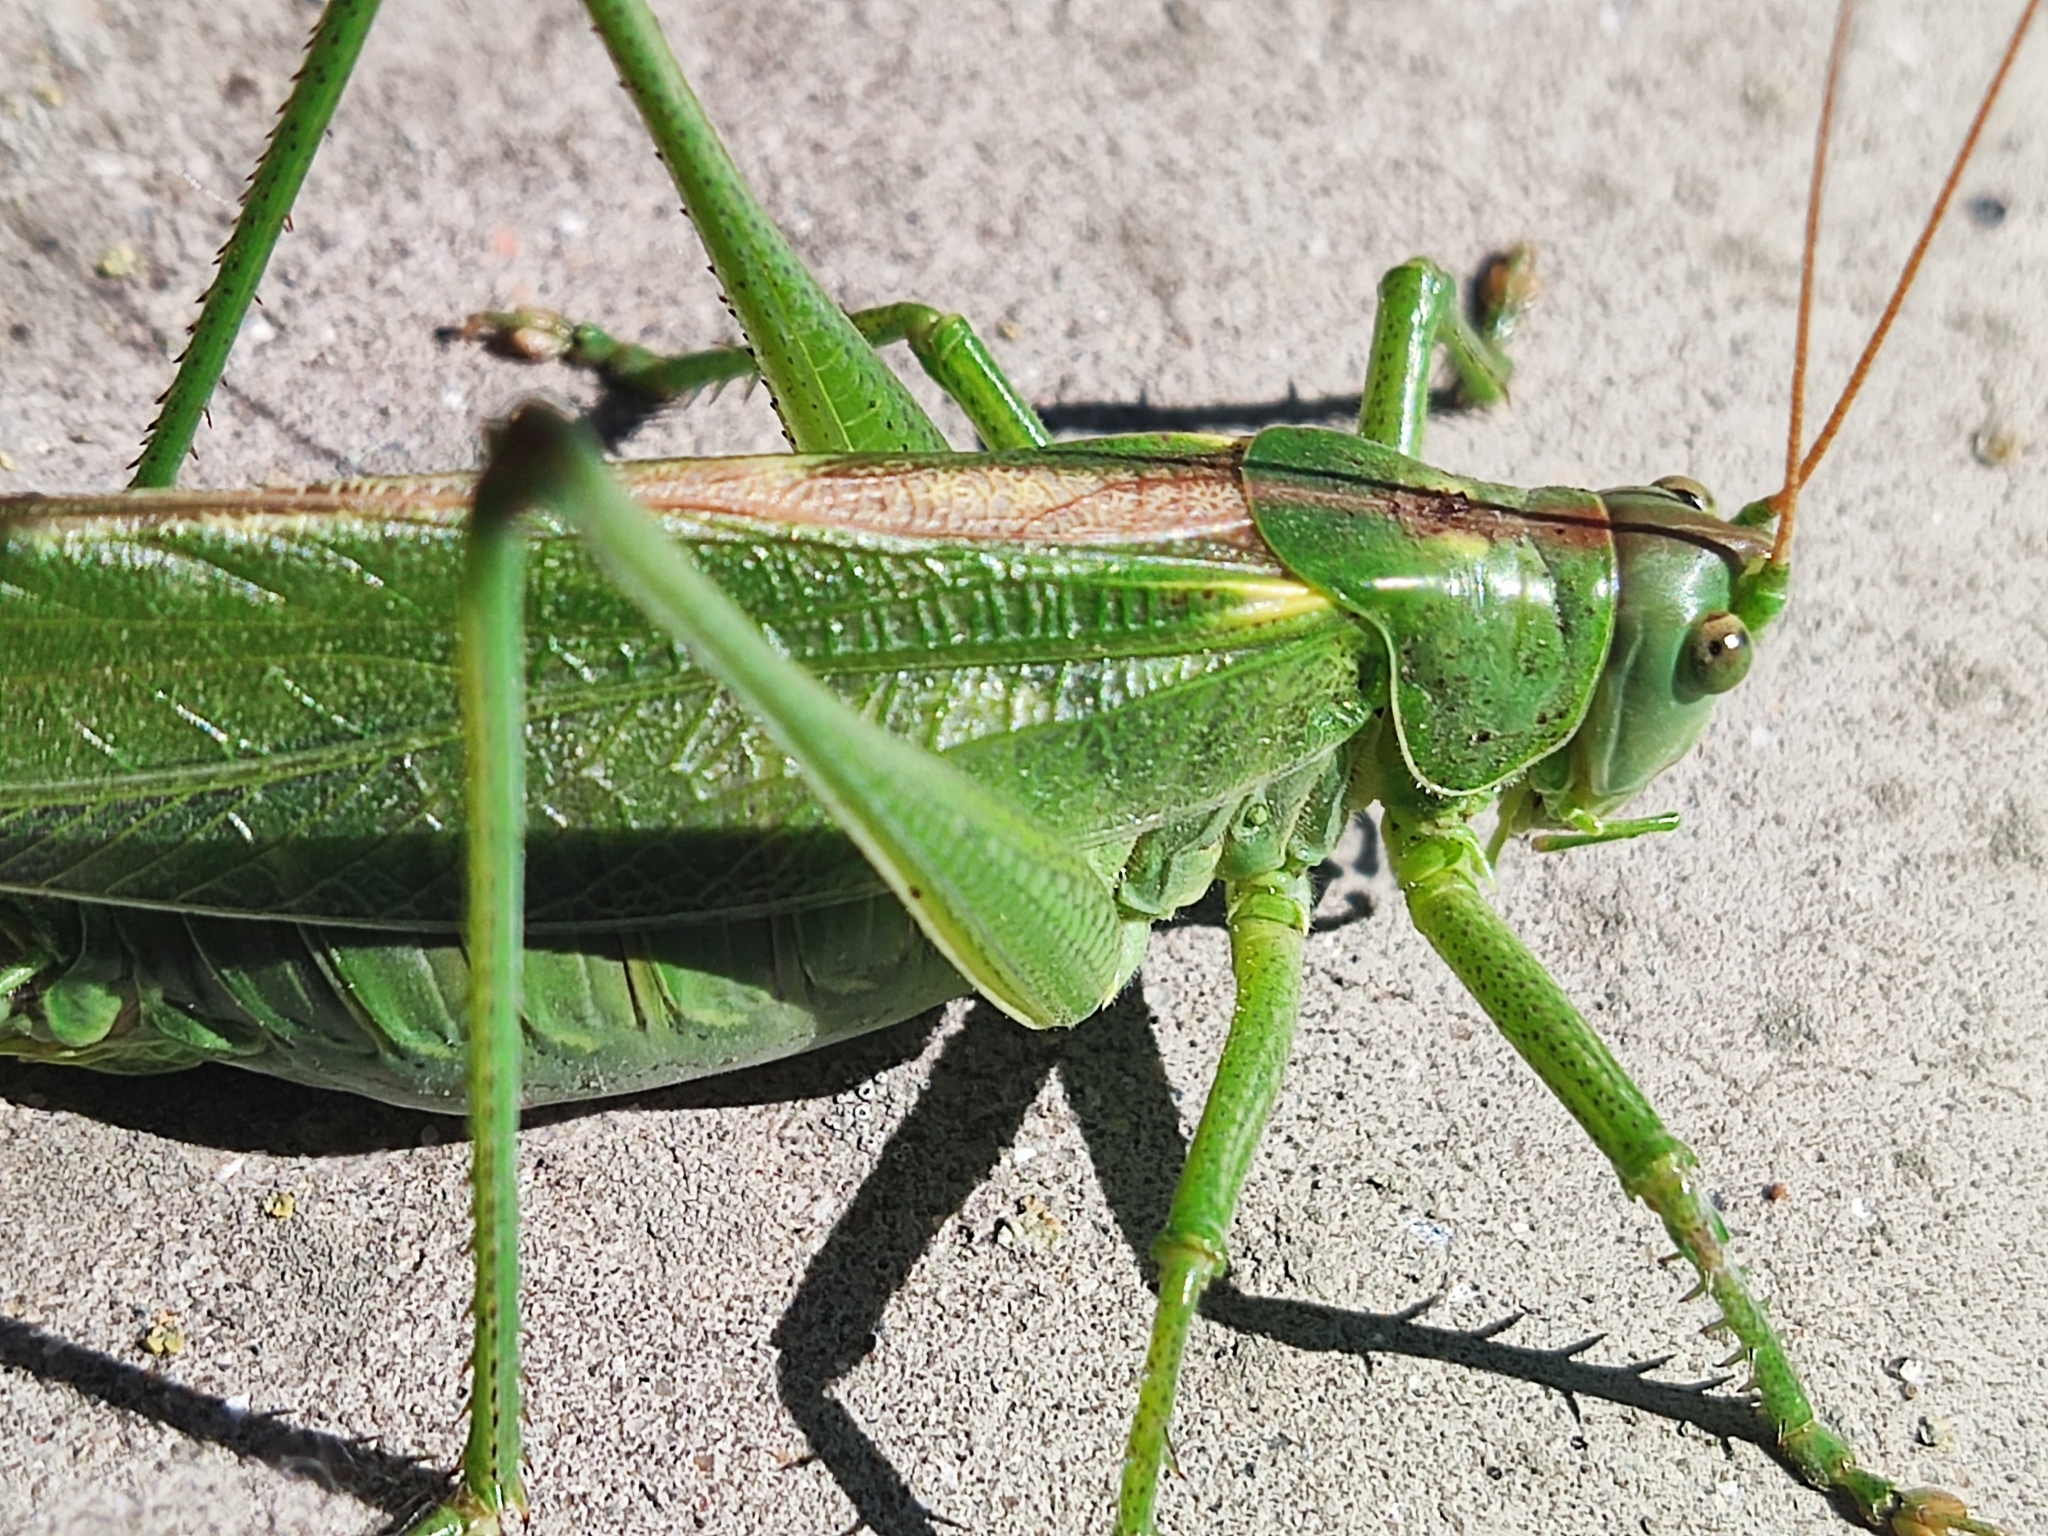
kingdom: Animalia
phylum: Arthropoda
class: Insecta
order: Orthoptera
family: Tettigoniidae
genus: Tettigonia
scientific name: Tettigonia viridissima
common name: Great green bush-cricket
